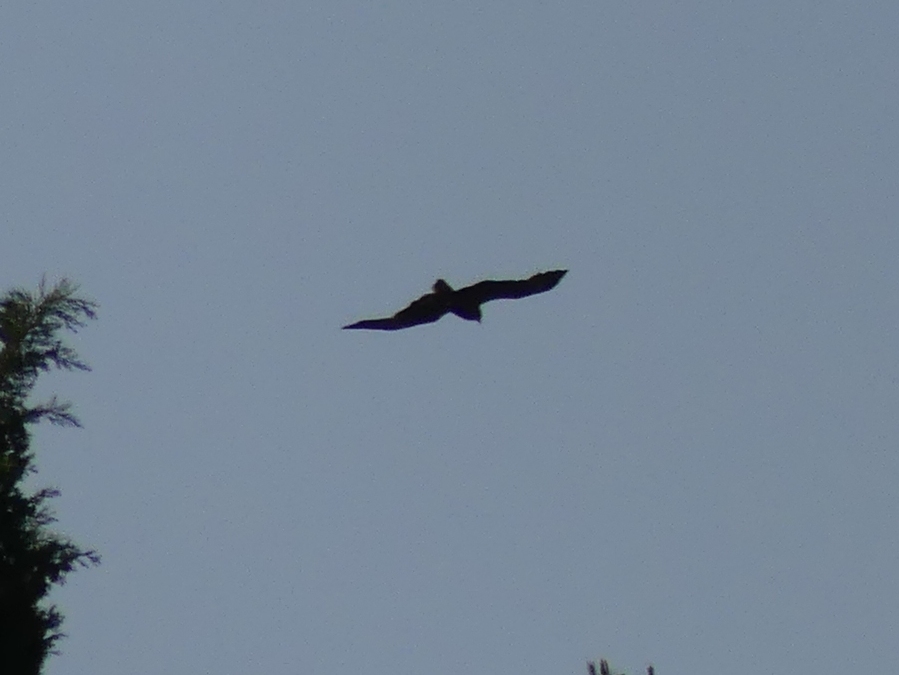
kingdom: Animalia
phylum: Chordata
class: Aves
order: Accipitriformes
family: Accipitridae
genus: Milvus
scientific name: Milvus migrans
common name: Black kite
